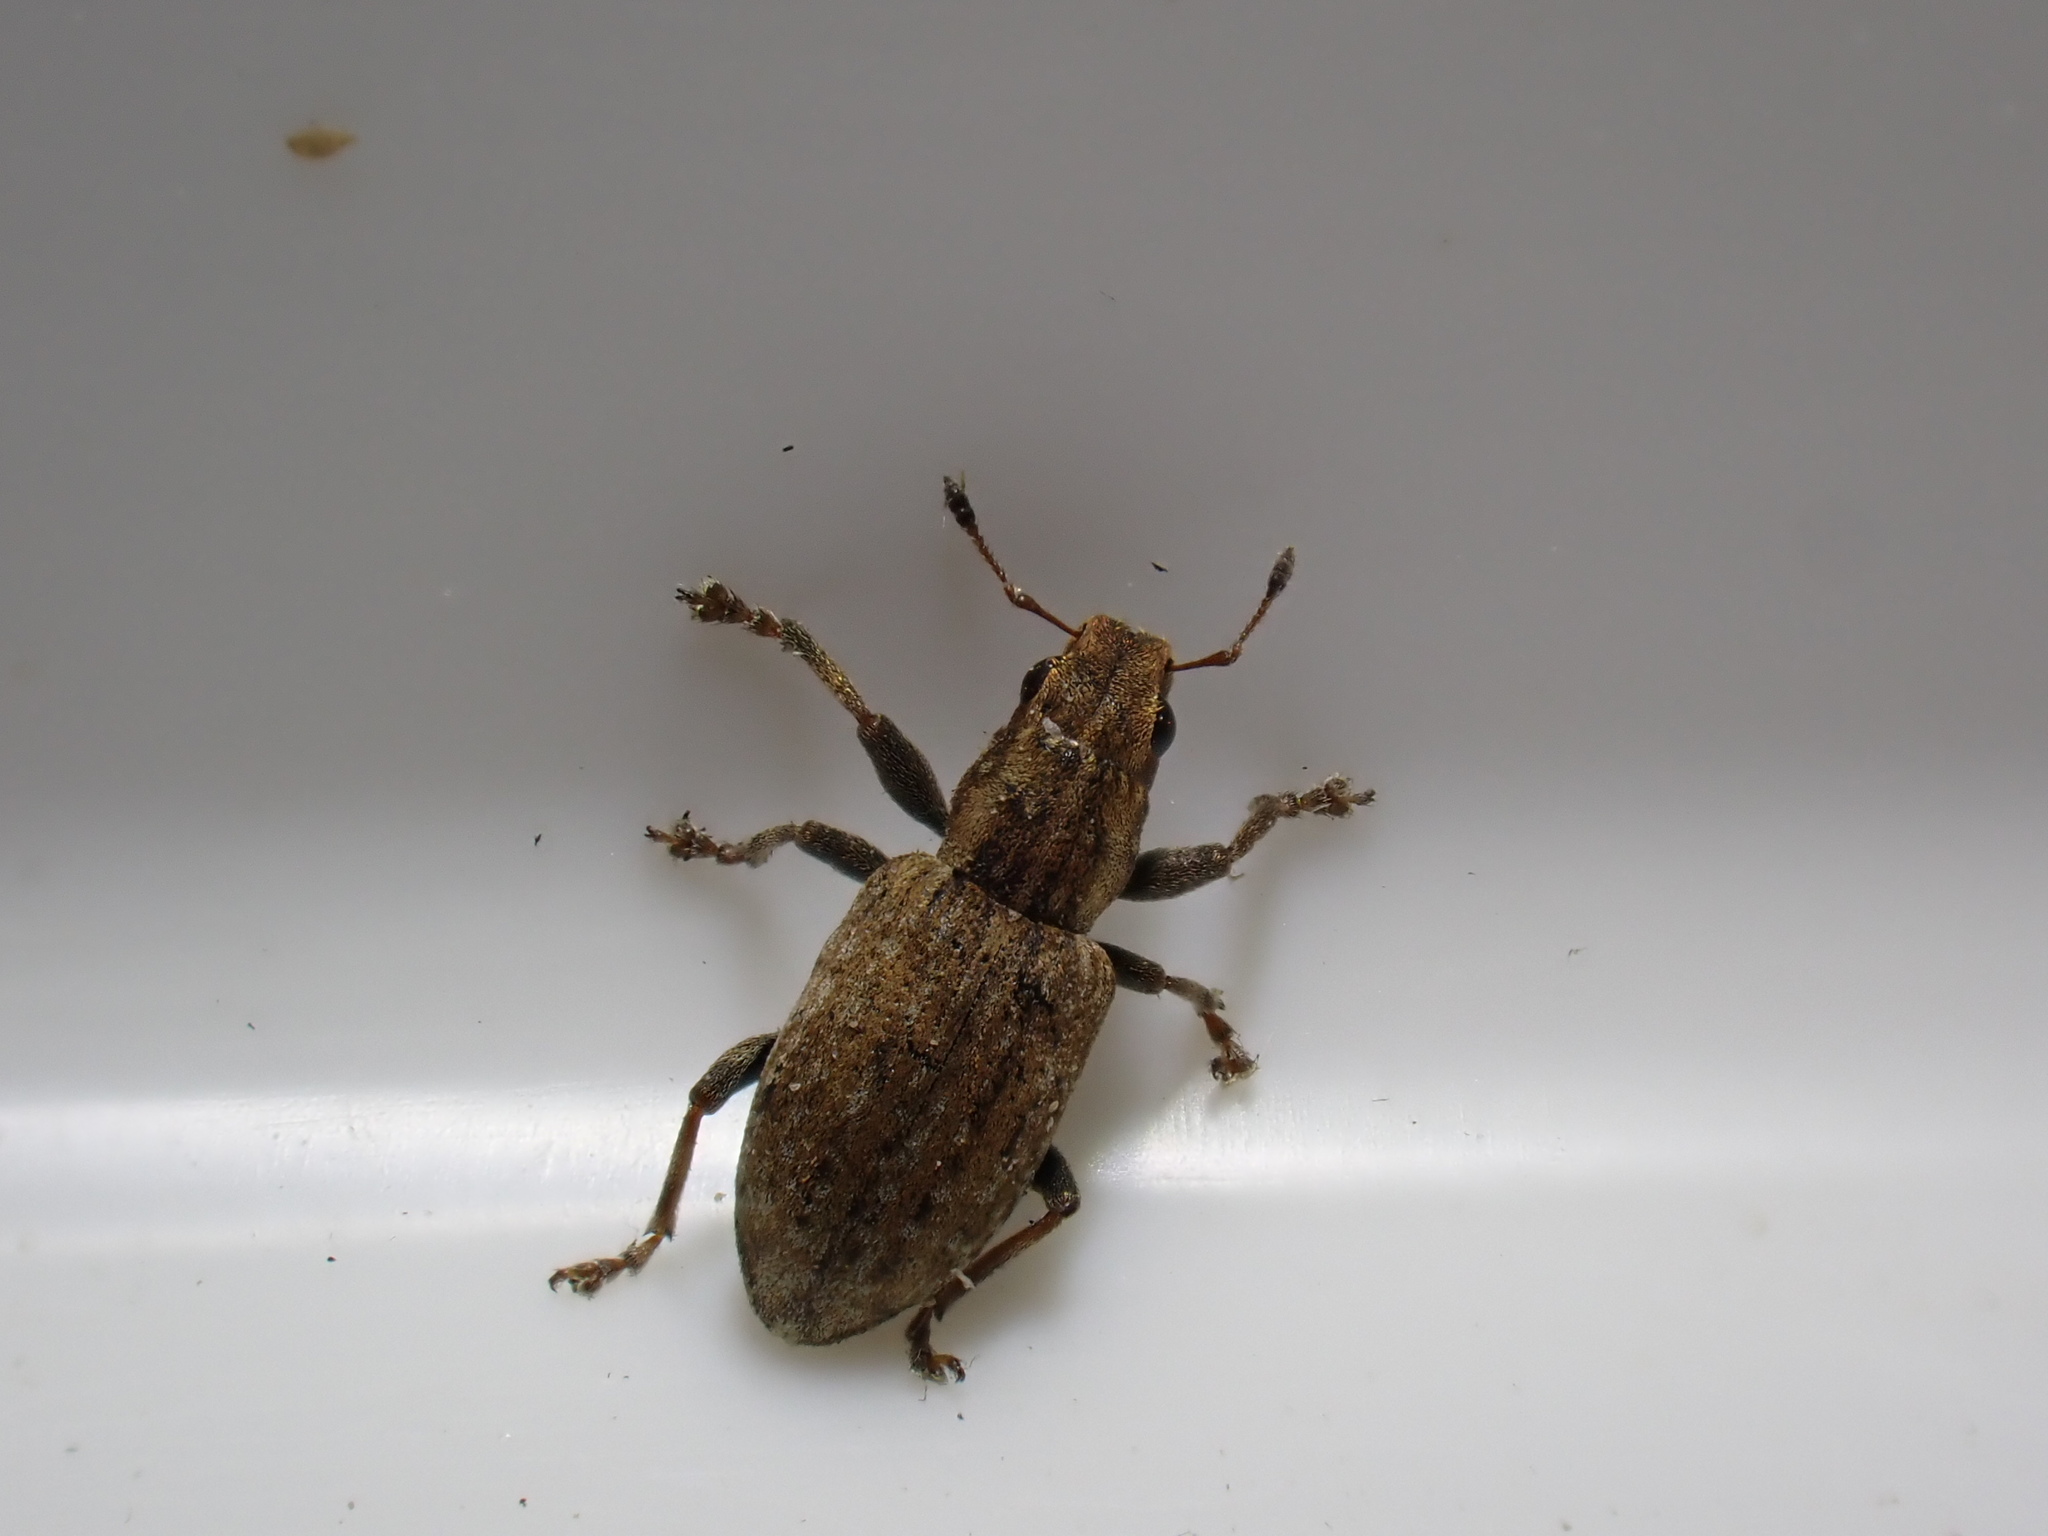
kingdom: Animalia
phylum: Arthropoda
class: Insecta
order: Coleoptera
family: Curculionidae
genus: Sitona
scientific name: Sitona obsoletus
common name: Weevil
